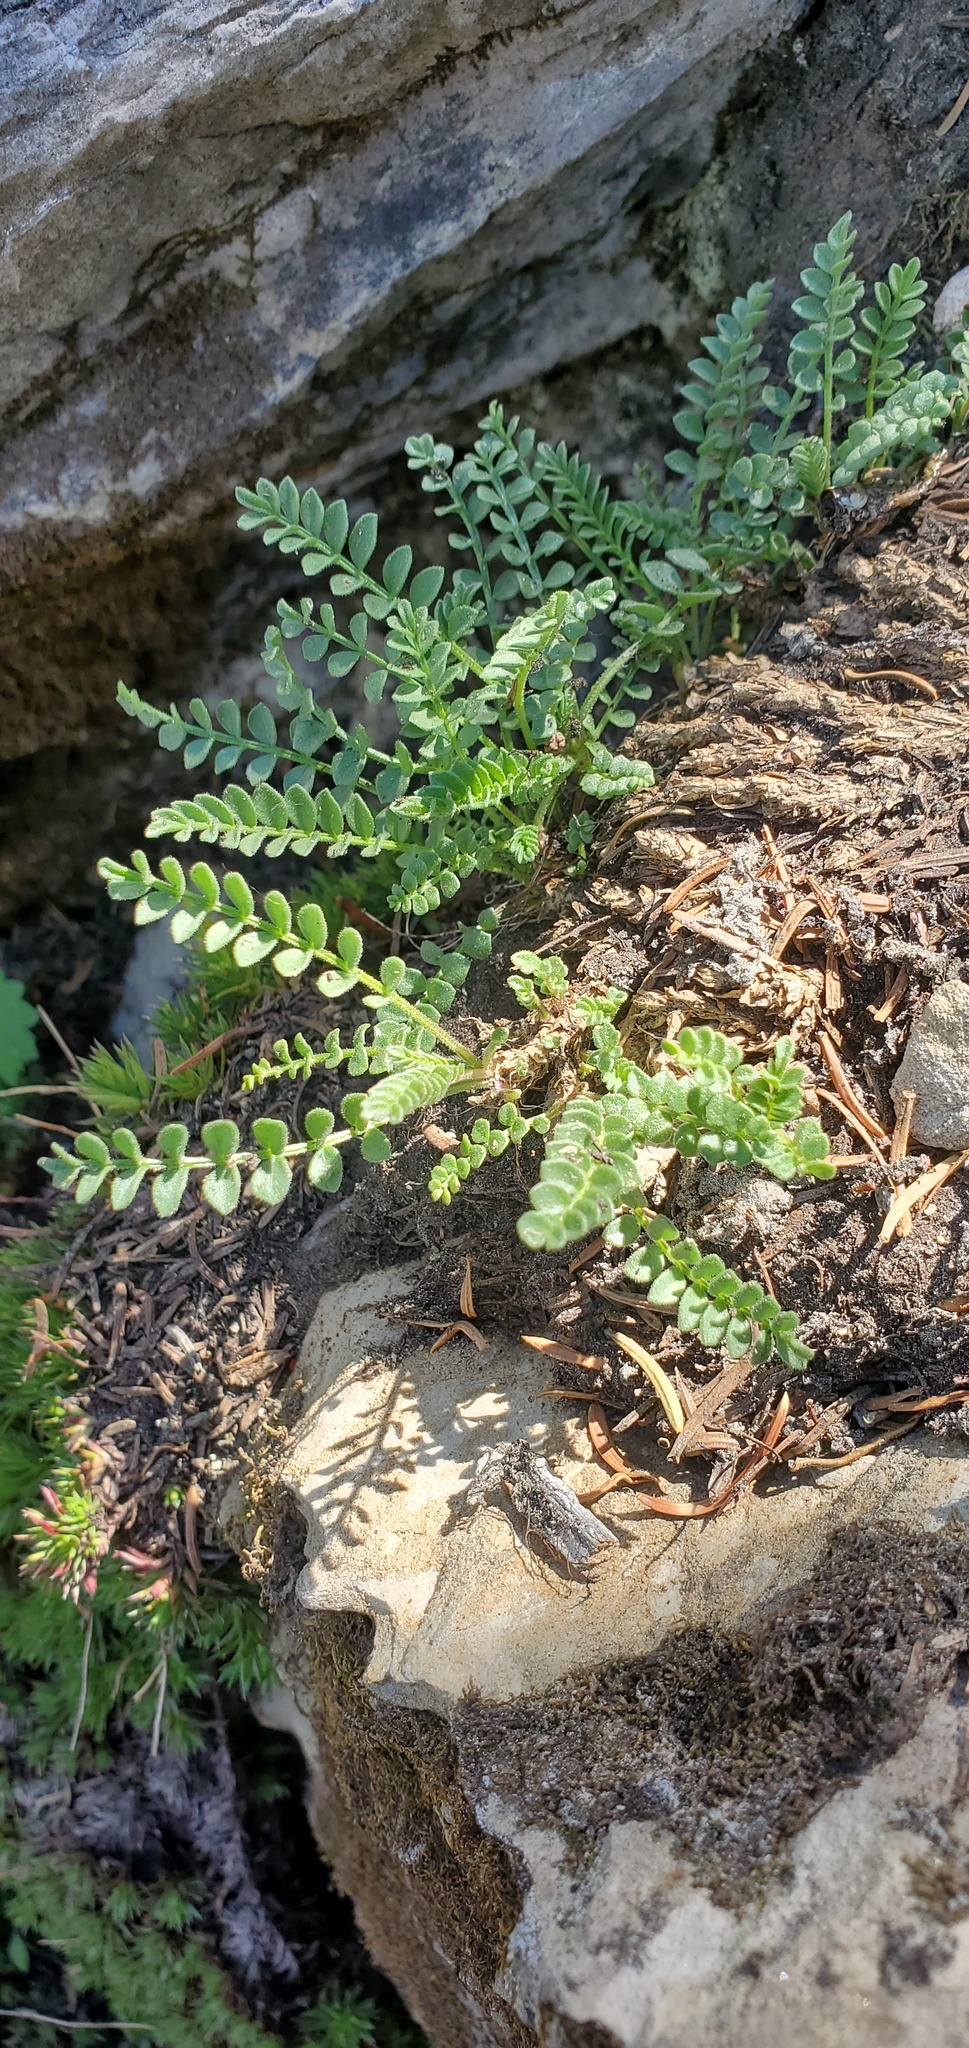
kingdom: Plantae
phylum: Tracheophyta
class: Magnoliopsida
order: Ericales
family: Polemoniaceae
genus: Polemonium
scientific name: Polemonium pulcherrimum
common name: Short jacob's-ladder
